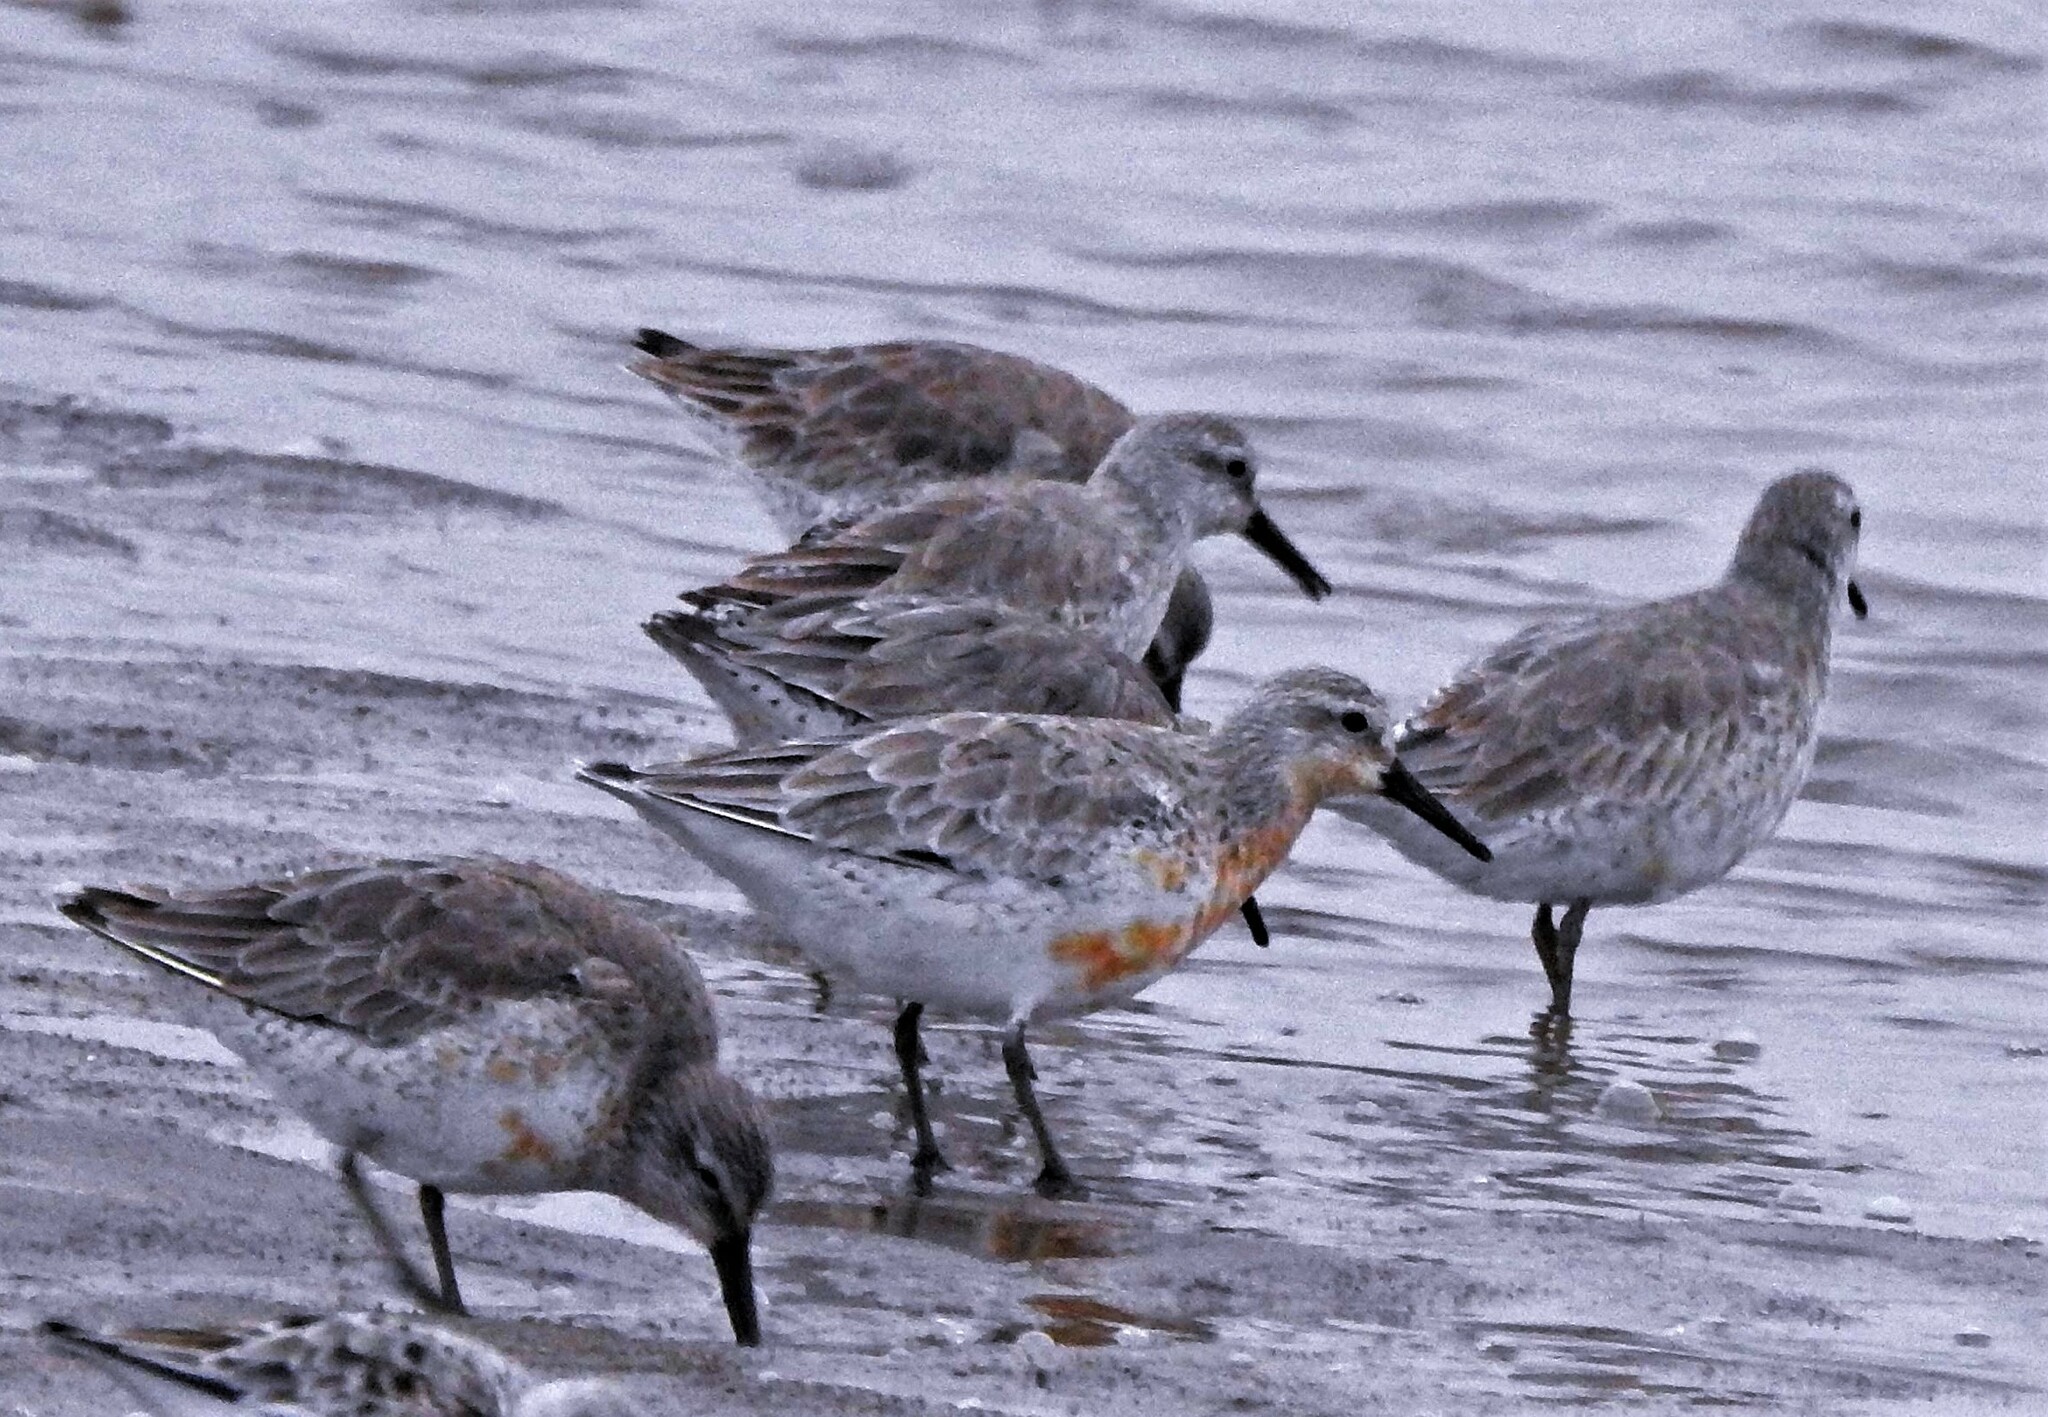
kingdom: Animalia
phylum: Chordata
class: Aves
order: Charadriiformes
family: Scolopacidae
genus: Calidris
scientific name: Calidris canutus
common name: Red knot
